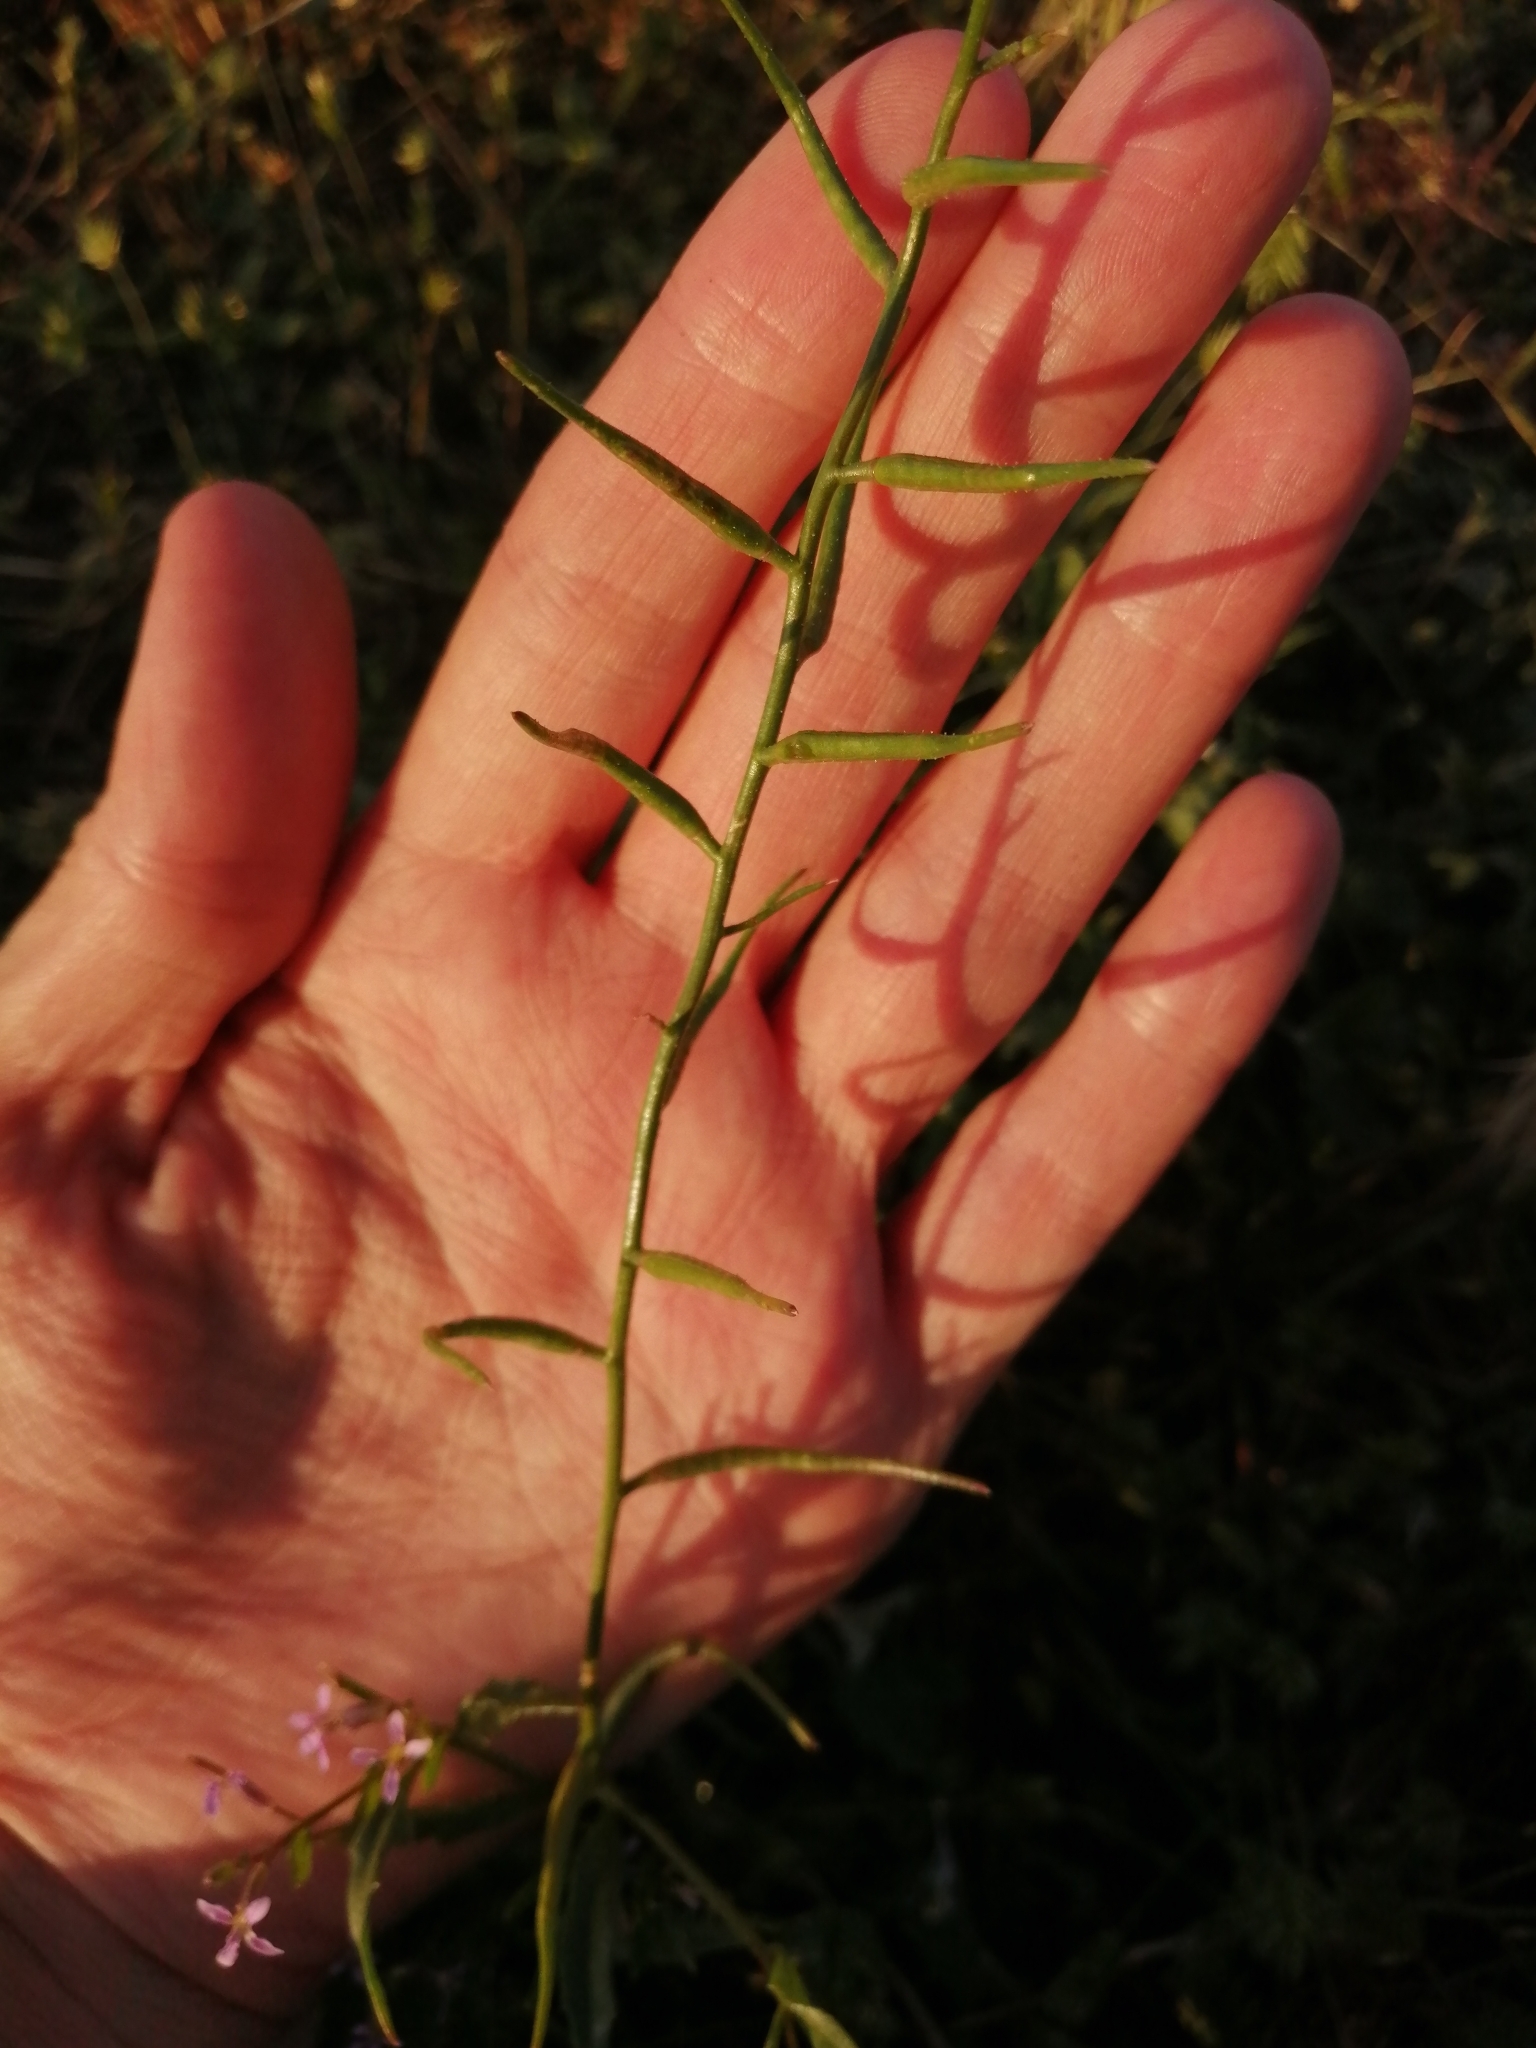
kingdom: Plantae
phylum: Tracheophyta
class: Magnoliopsida
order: Brassicales
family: Brassicaceae
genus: Chorispora
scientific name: Chorispora tenella
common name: Crossflower
